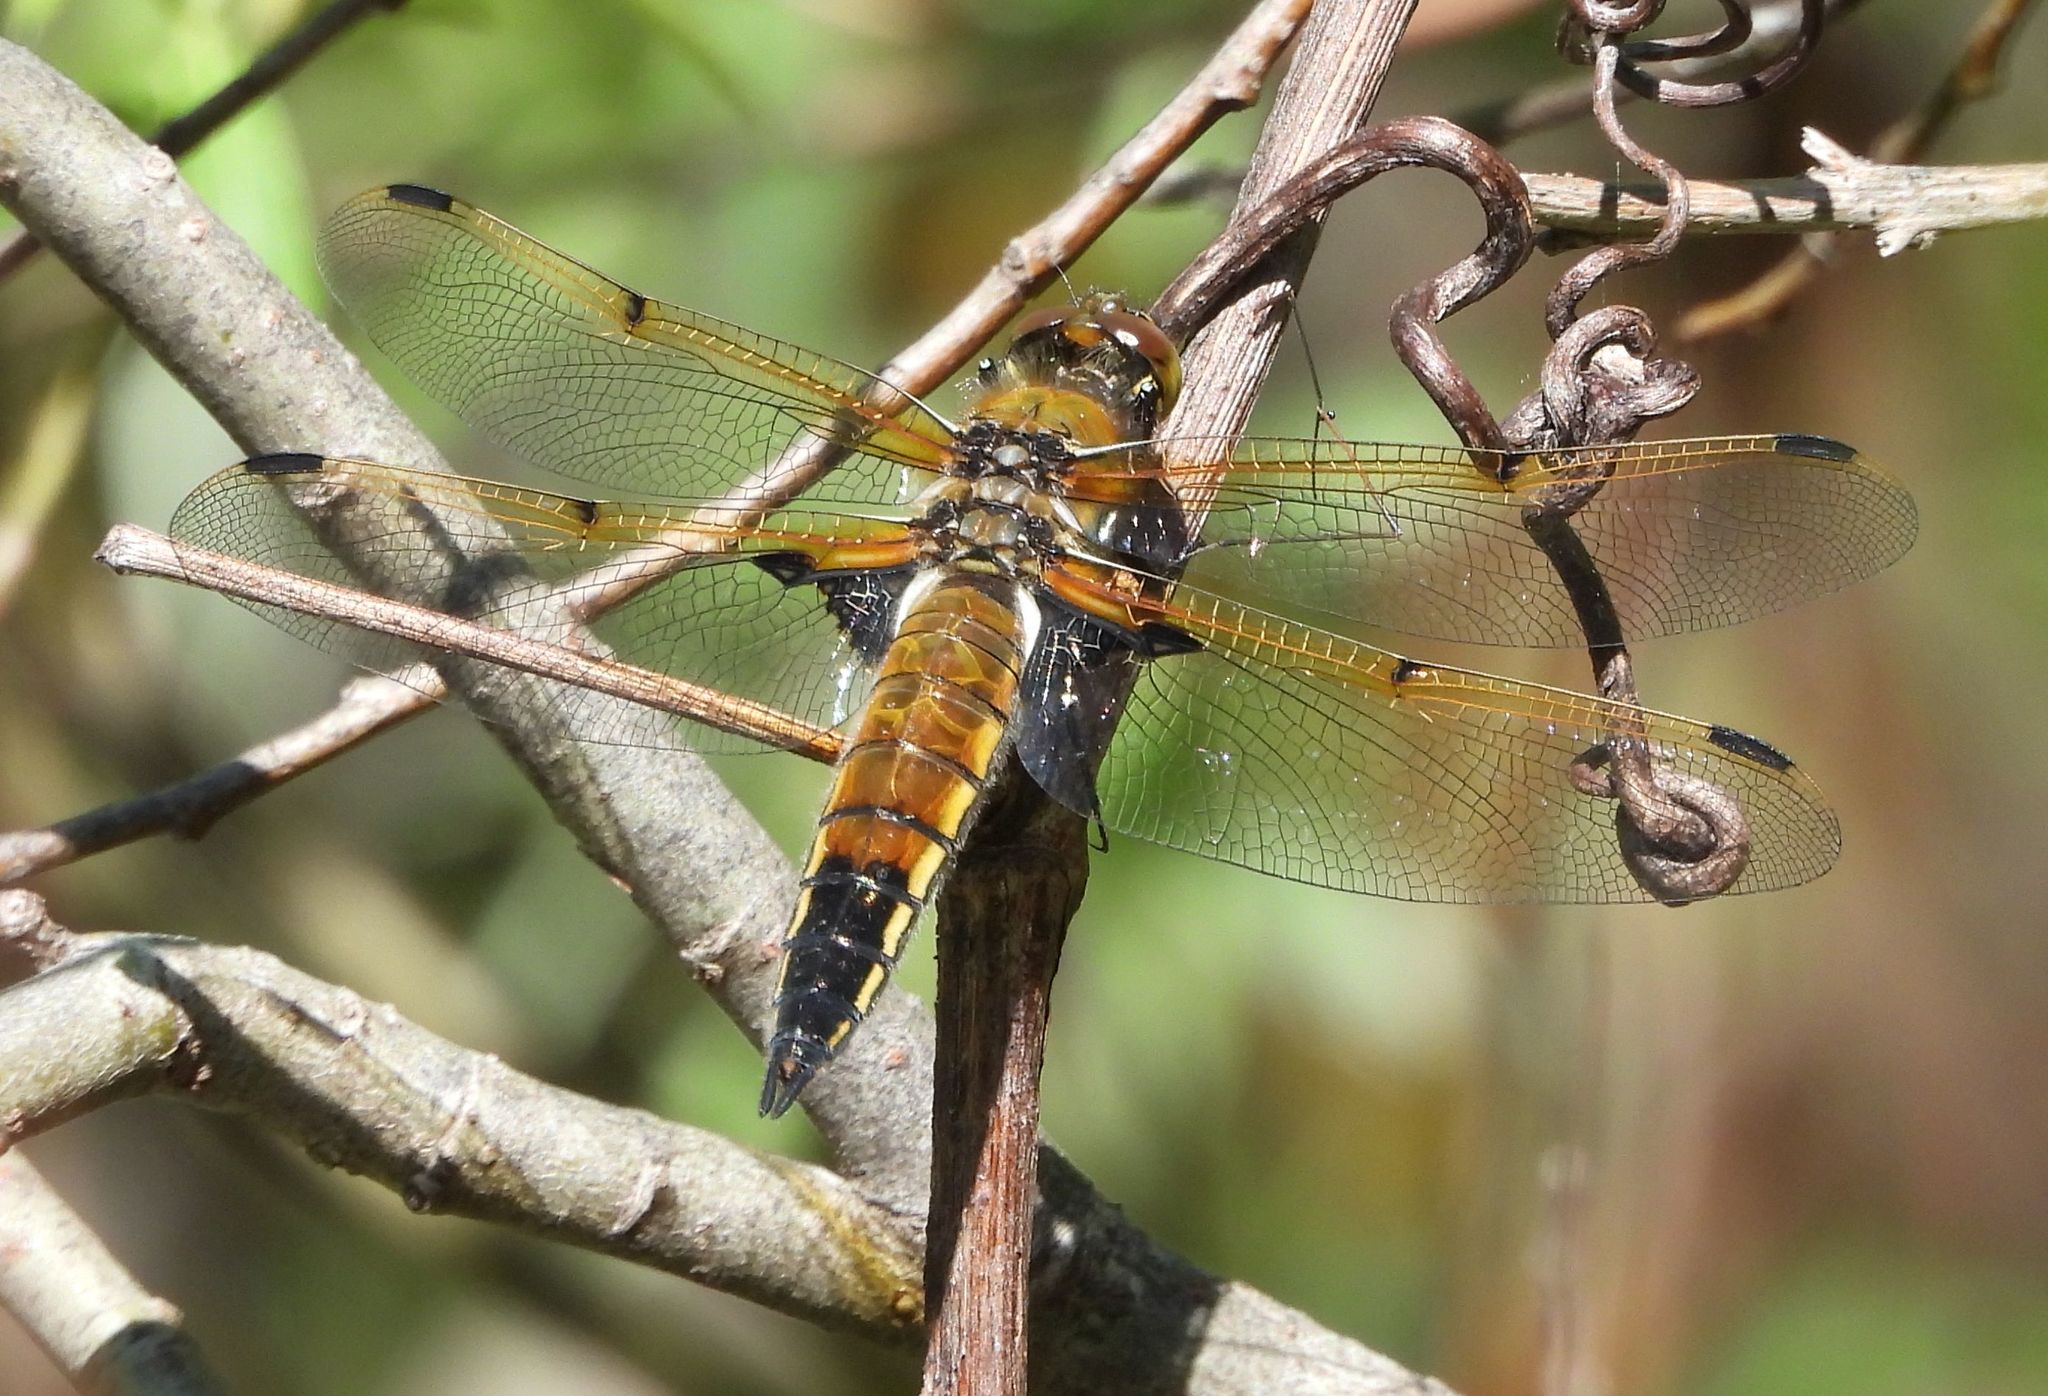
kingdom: Animalia
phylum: Arthropoda
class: Insecta
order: Odonata
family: Libellulidae
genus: Libellula
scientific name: Libellula quadrimaculata
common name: Four-spotted chaser
